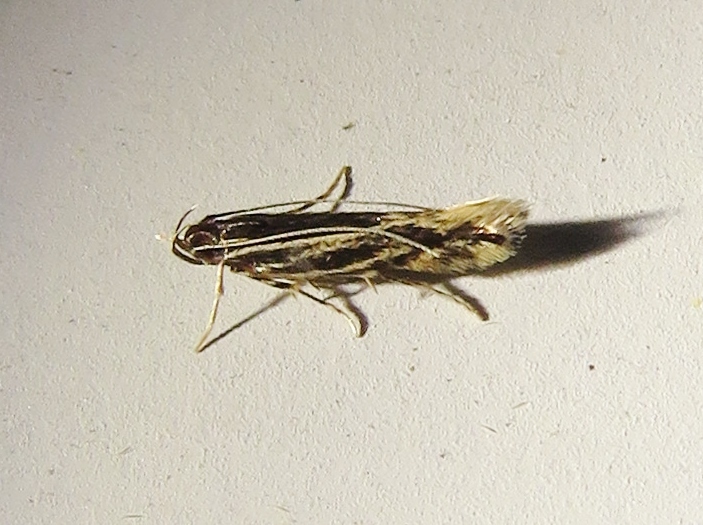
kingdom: Animalia
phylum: Arthropoda
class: Insecta
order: Lepidoptera
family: Cosmopterigidae
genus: Eralea
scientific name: Eralea albalineella
